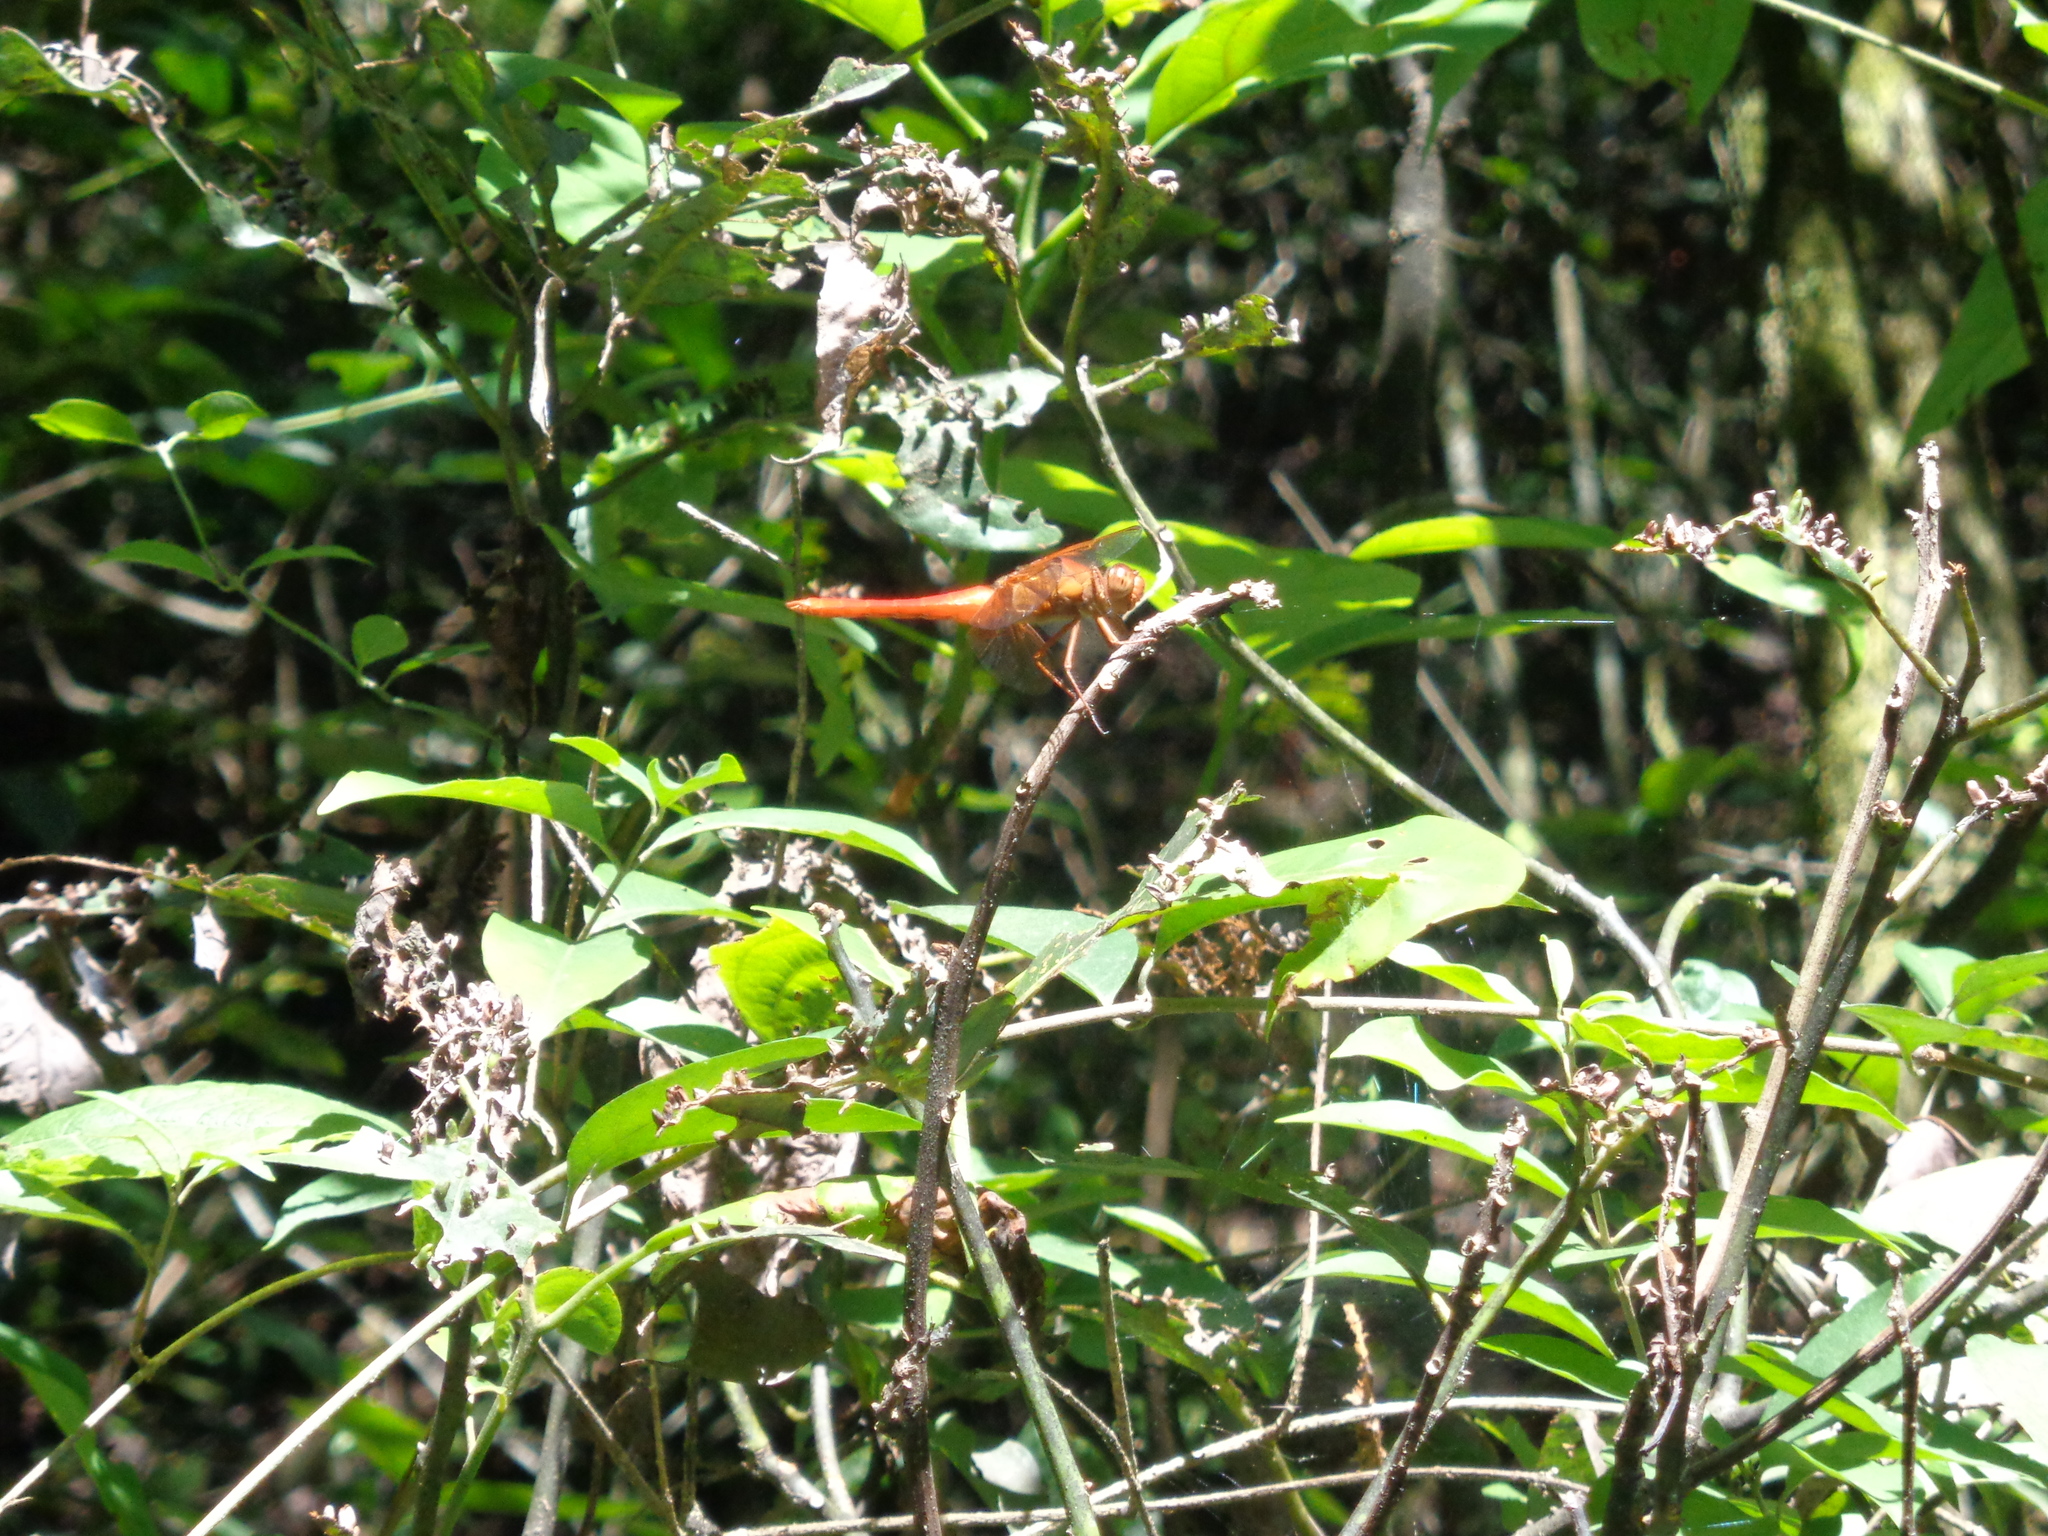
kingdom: Animalia
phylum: Arthropoda
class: Insecta
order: Odonata
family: Libellulidae
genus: Libellula
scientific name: Libellula croceipennis
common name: Neon skimmer
